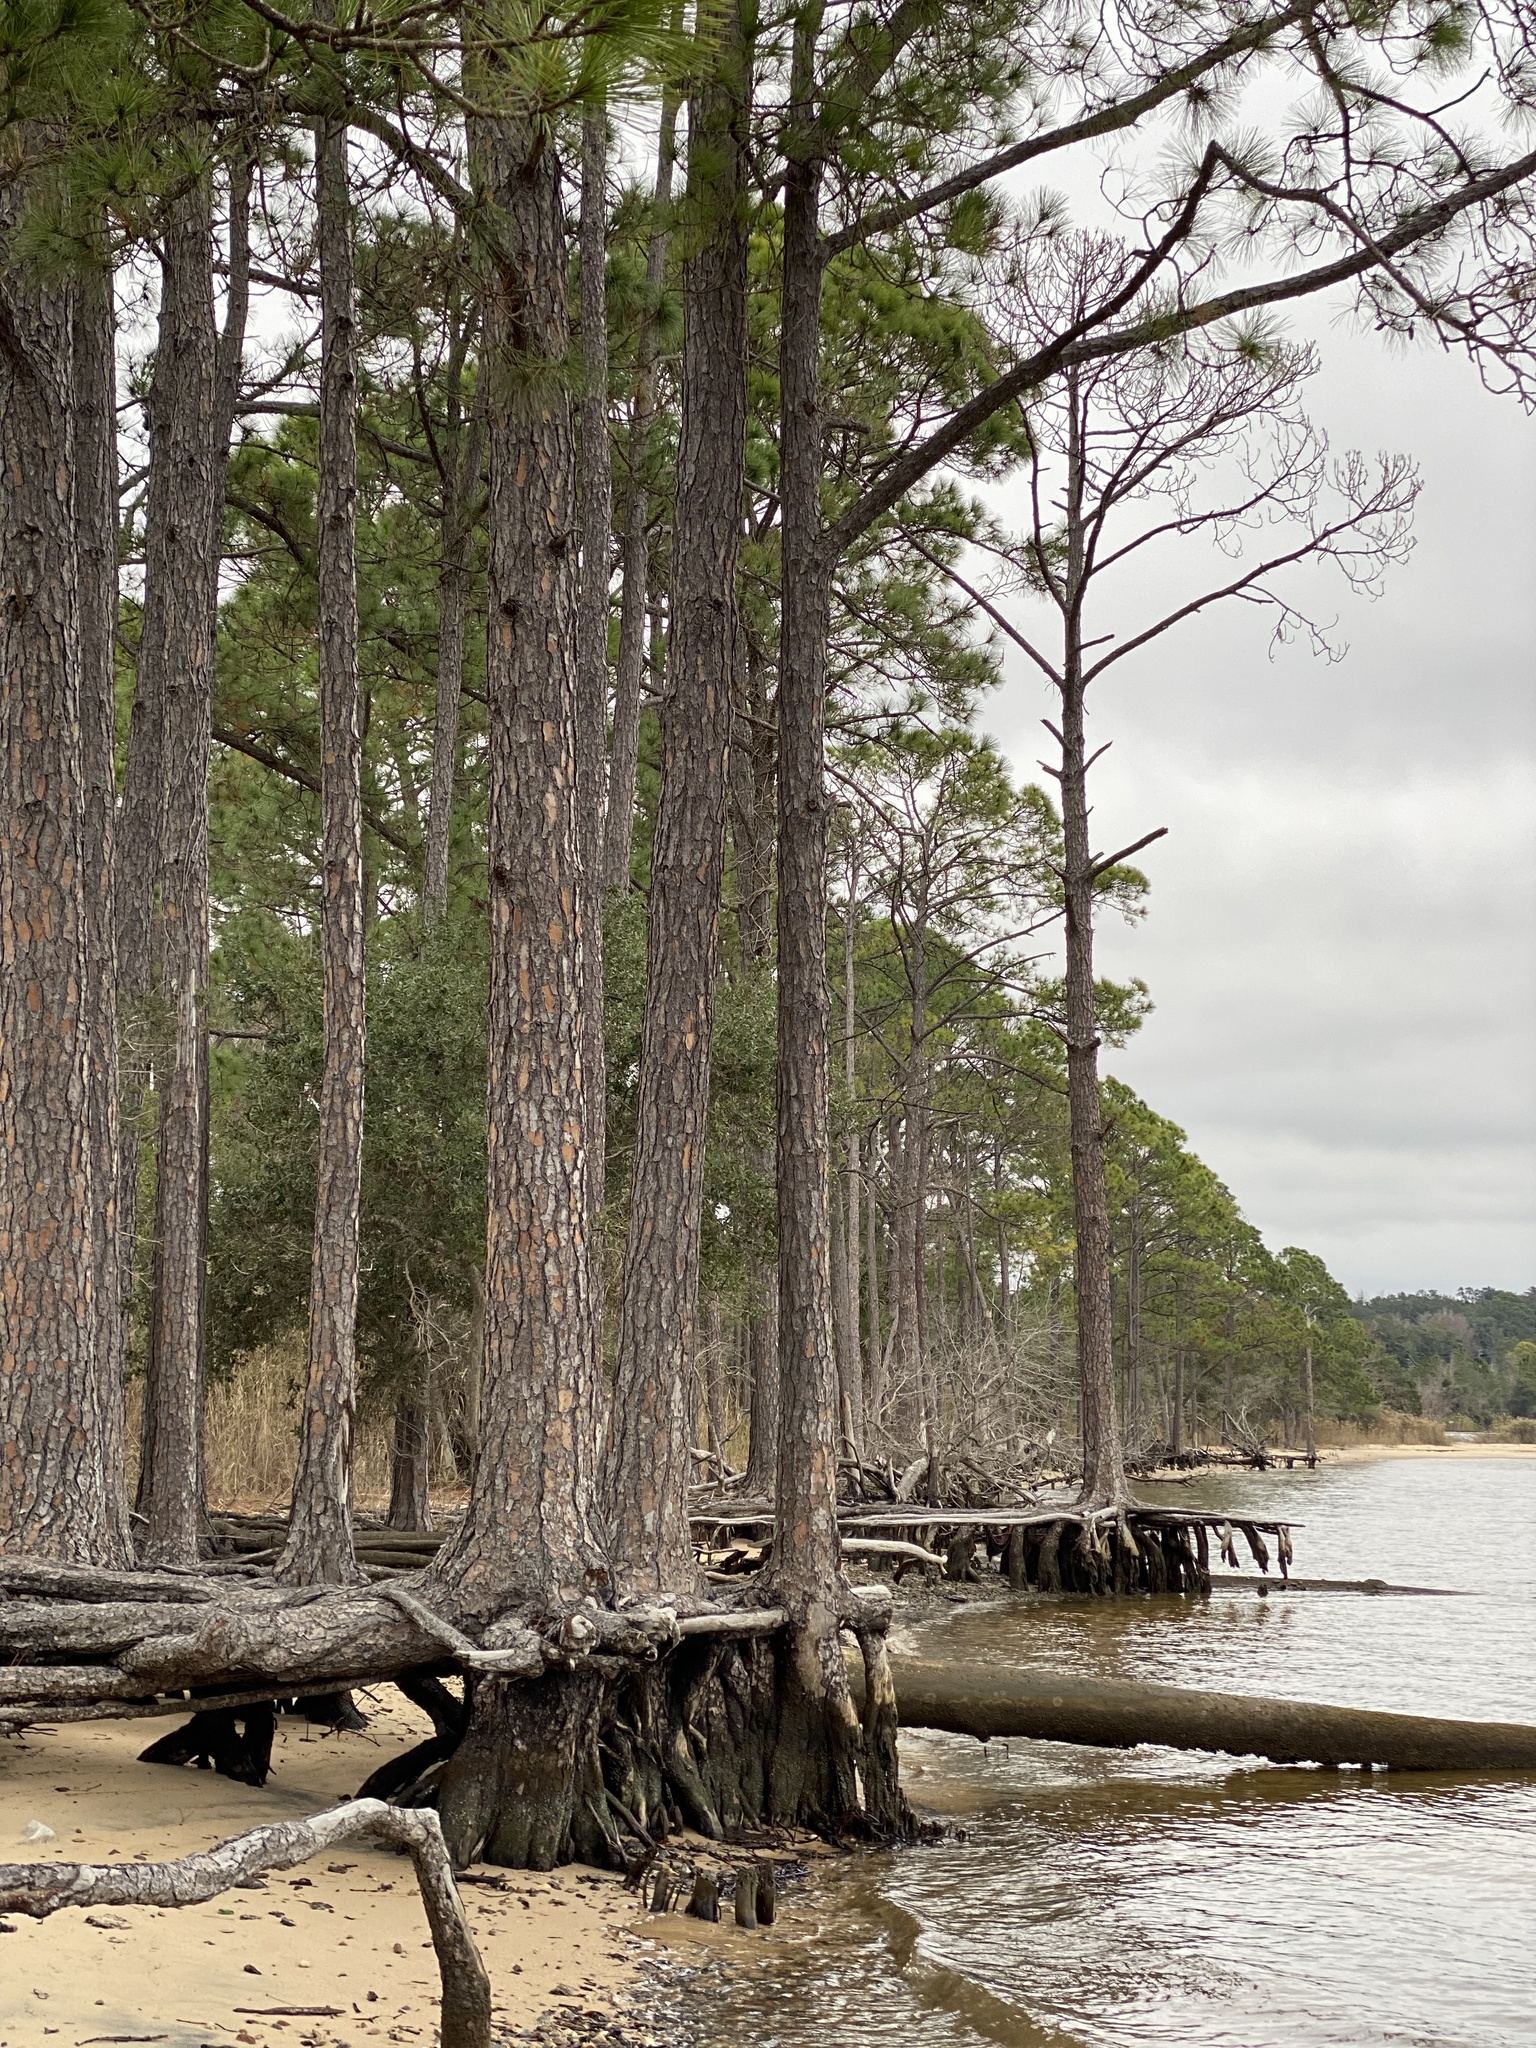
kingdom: Plantae
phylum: Tracheophyta
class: Pinopsida
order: Pinales
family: Pinaceae
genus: Pinus
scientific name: Pinus elliottii
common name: Slash pine
